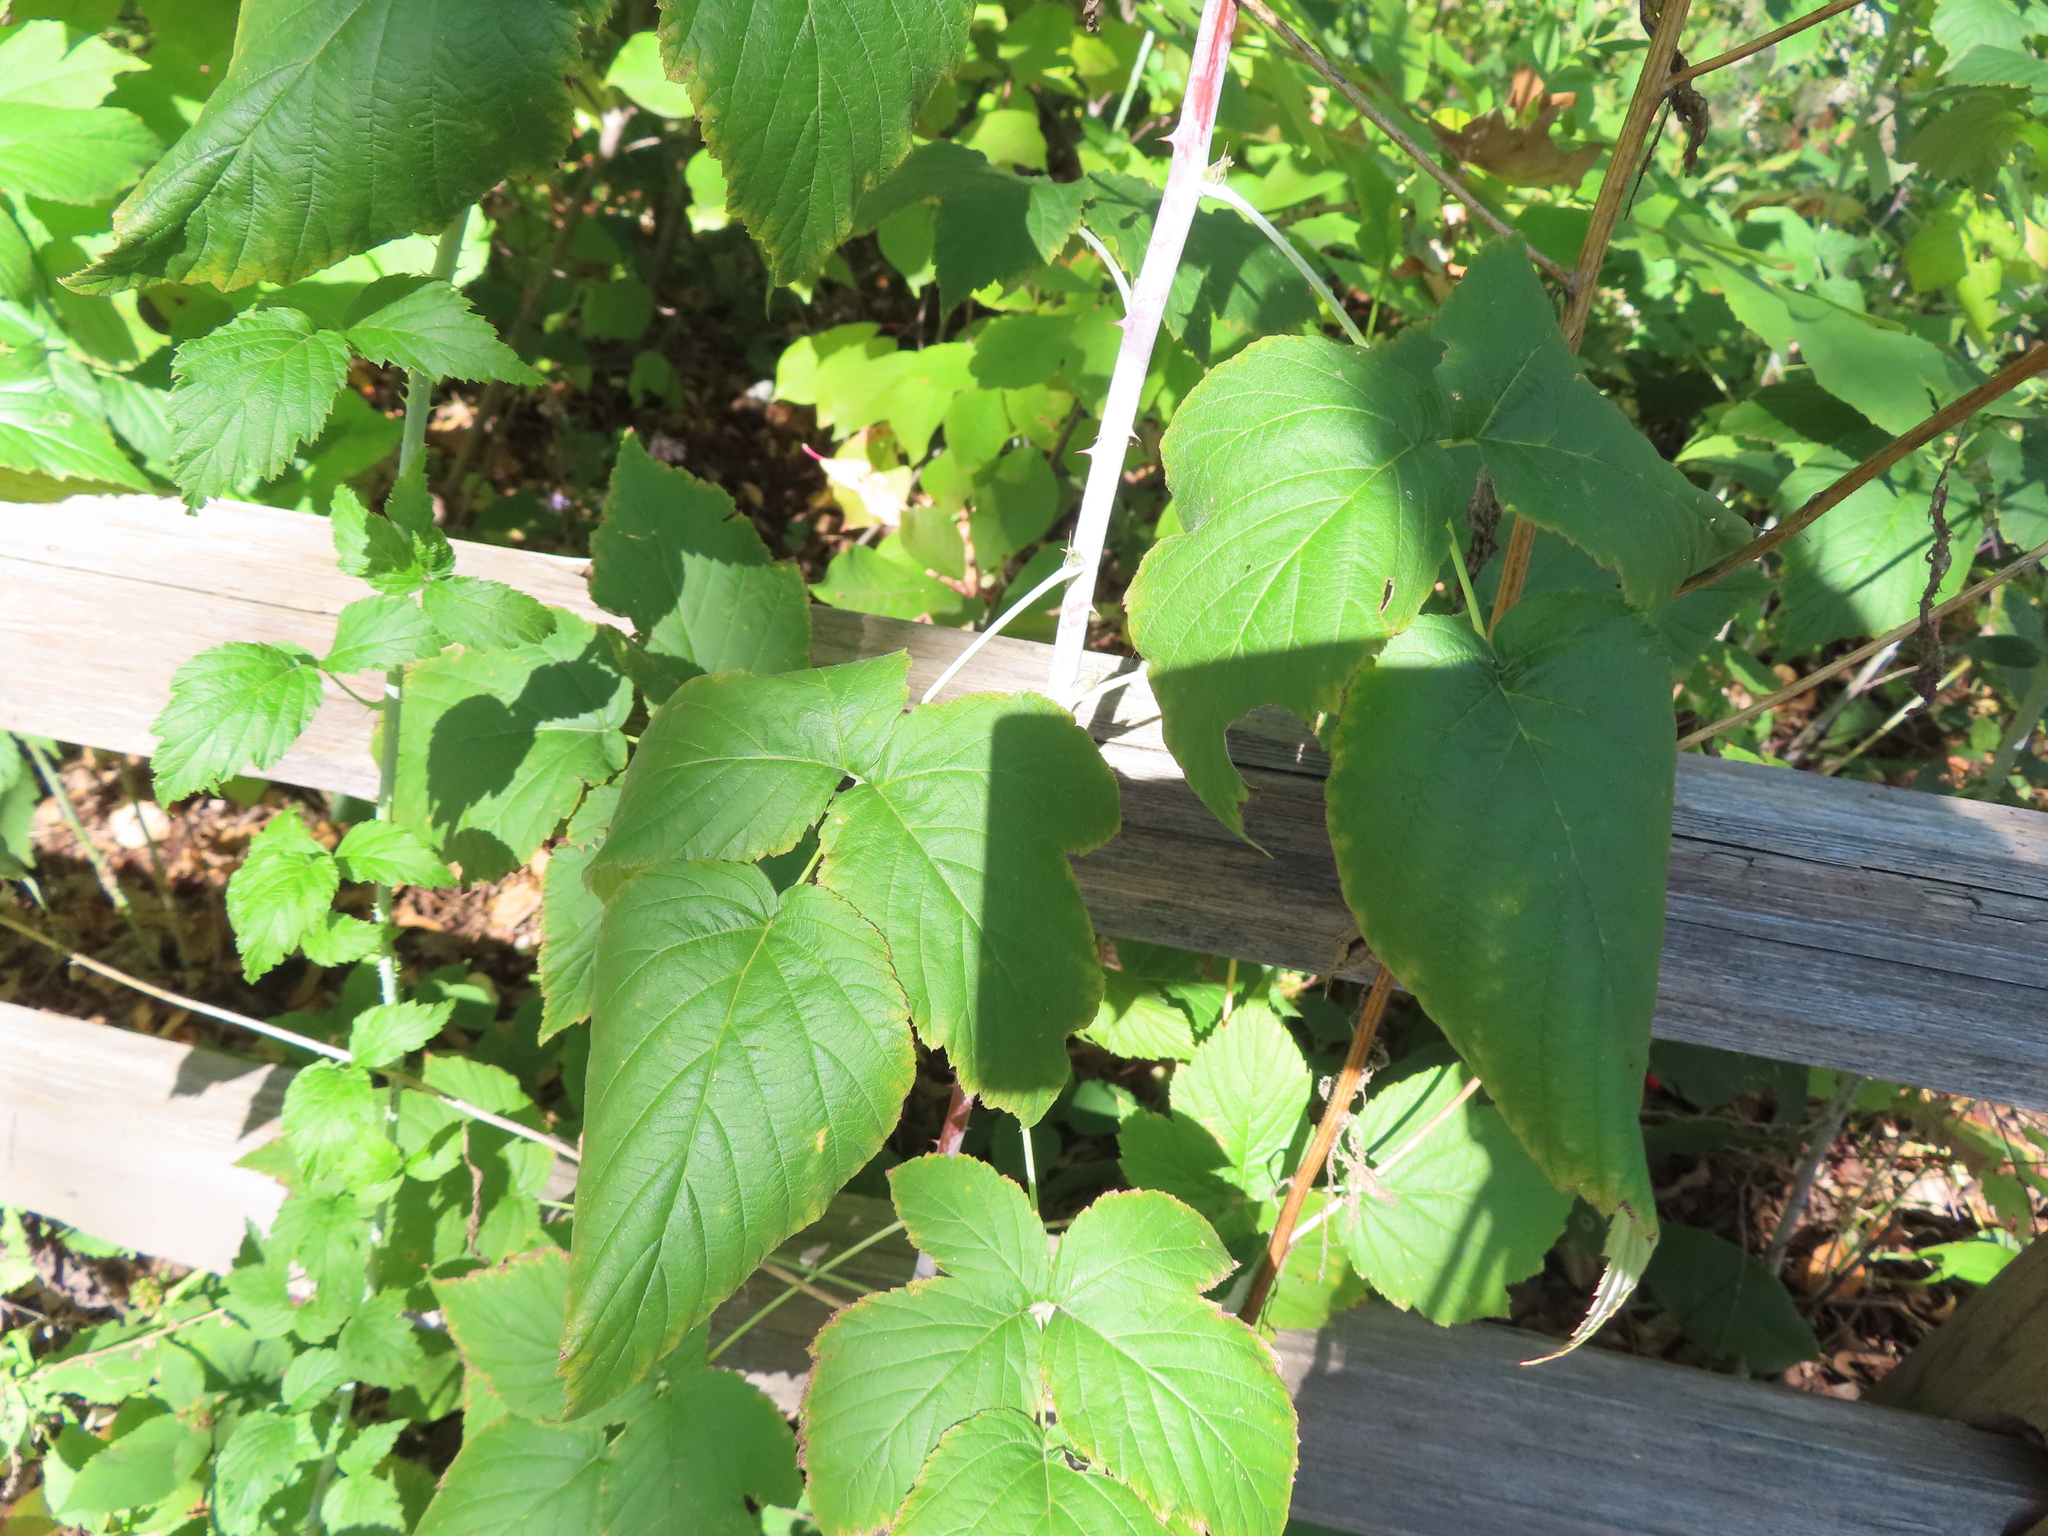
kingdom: Plantae
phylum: Tracheophyta
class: Magnoliopsida
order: Rosales
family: Rosaceae
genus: Rubus
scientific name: Rubus occidentalis
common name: Black raspberry
